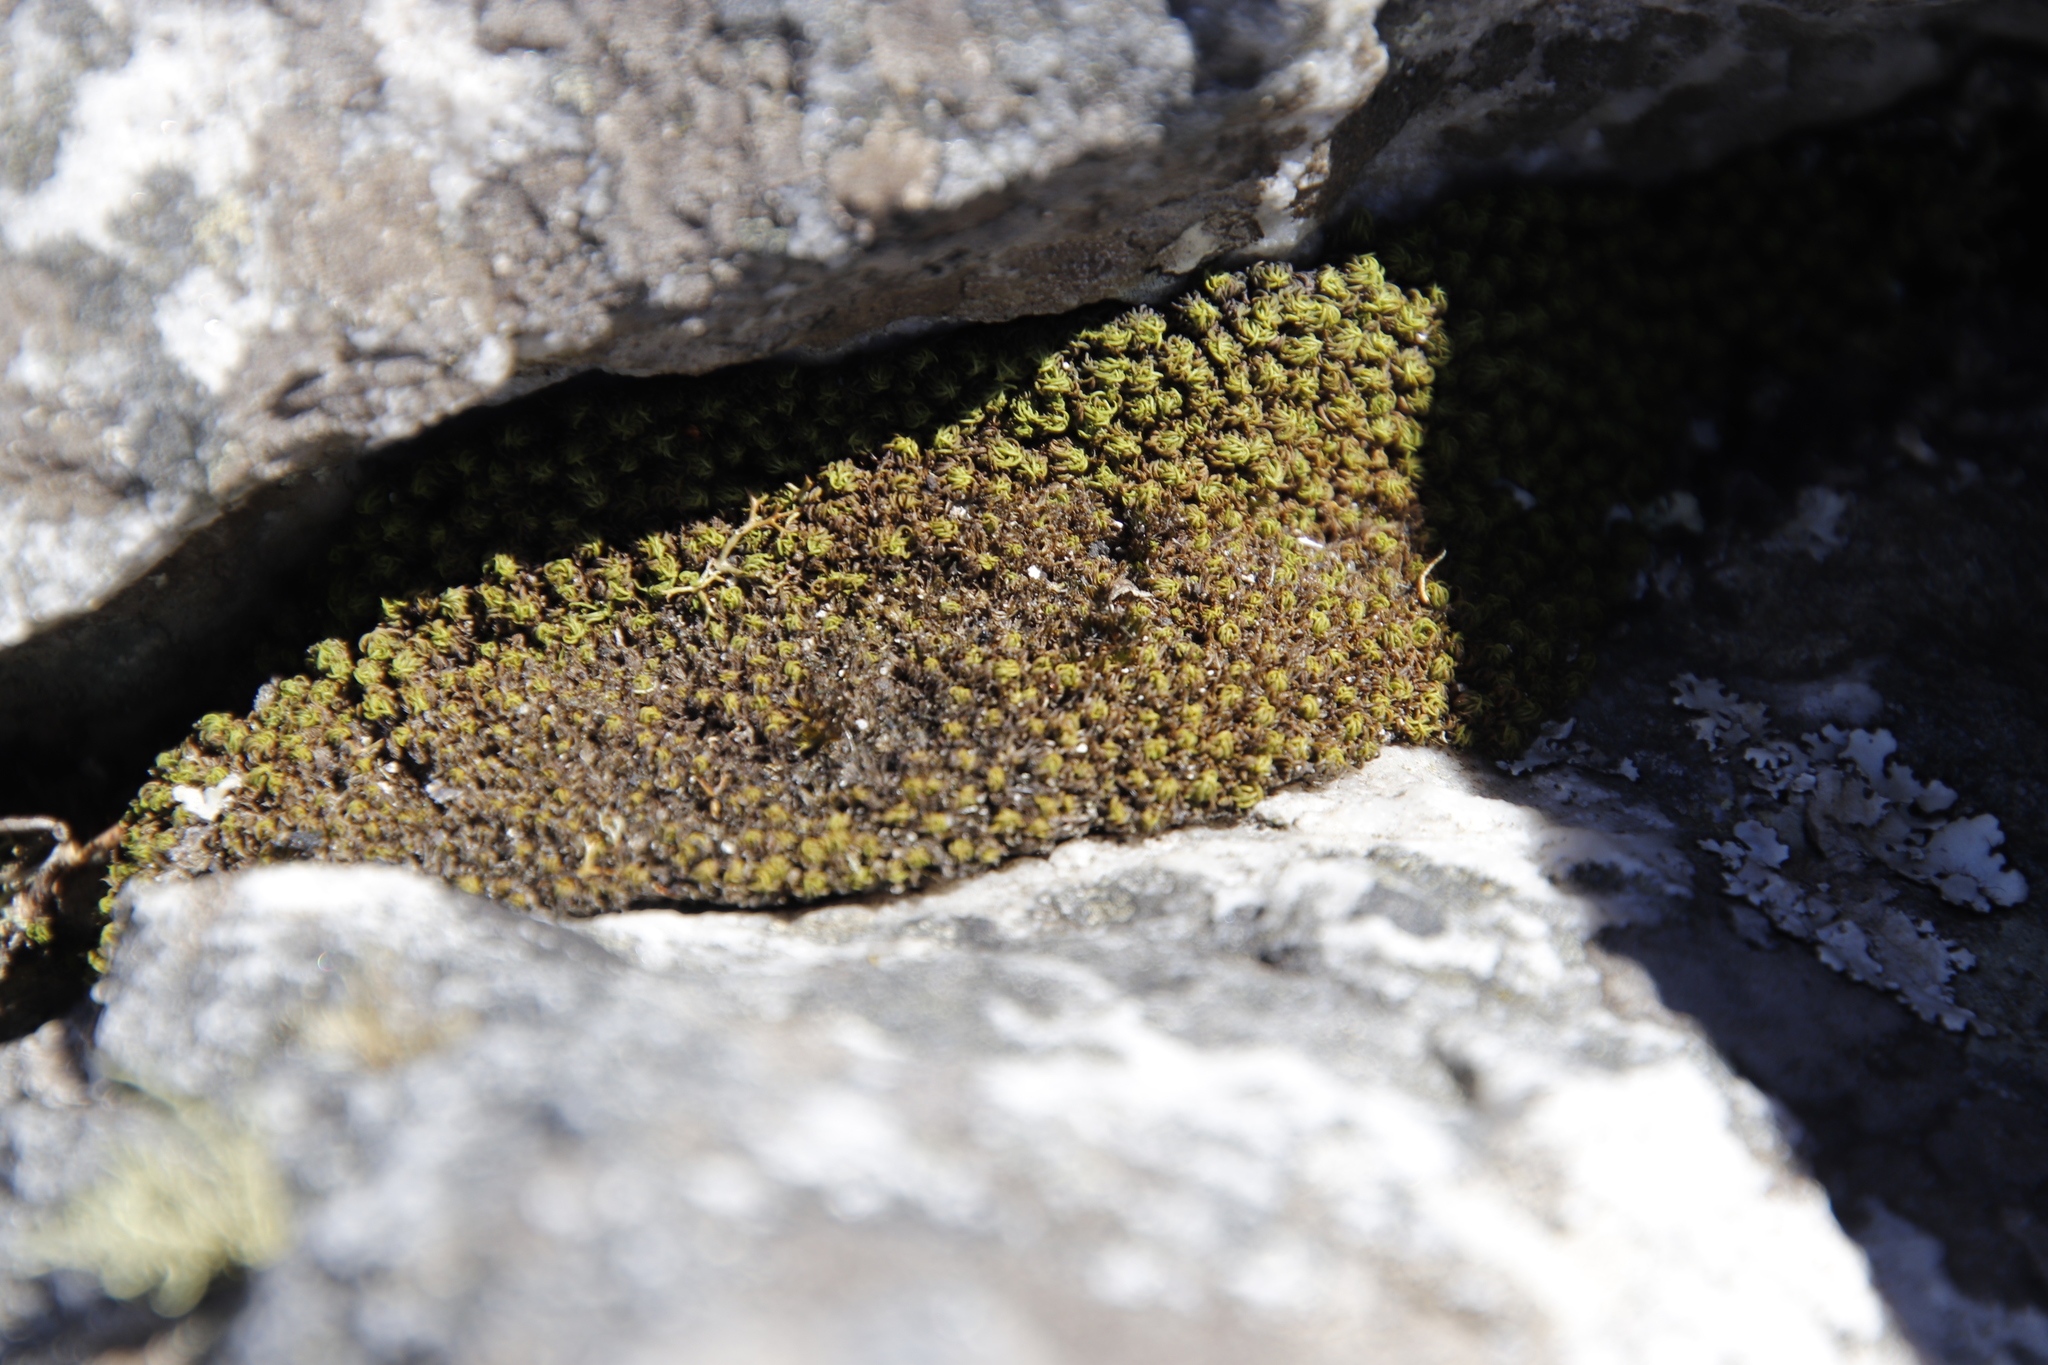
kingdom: Plantae
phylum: Bryophyta
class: Bryopsida
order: Dicranales
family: Hypodontiaceae
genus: Hypodontium
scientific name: Hypodontium dregei
